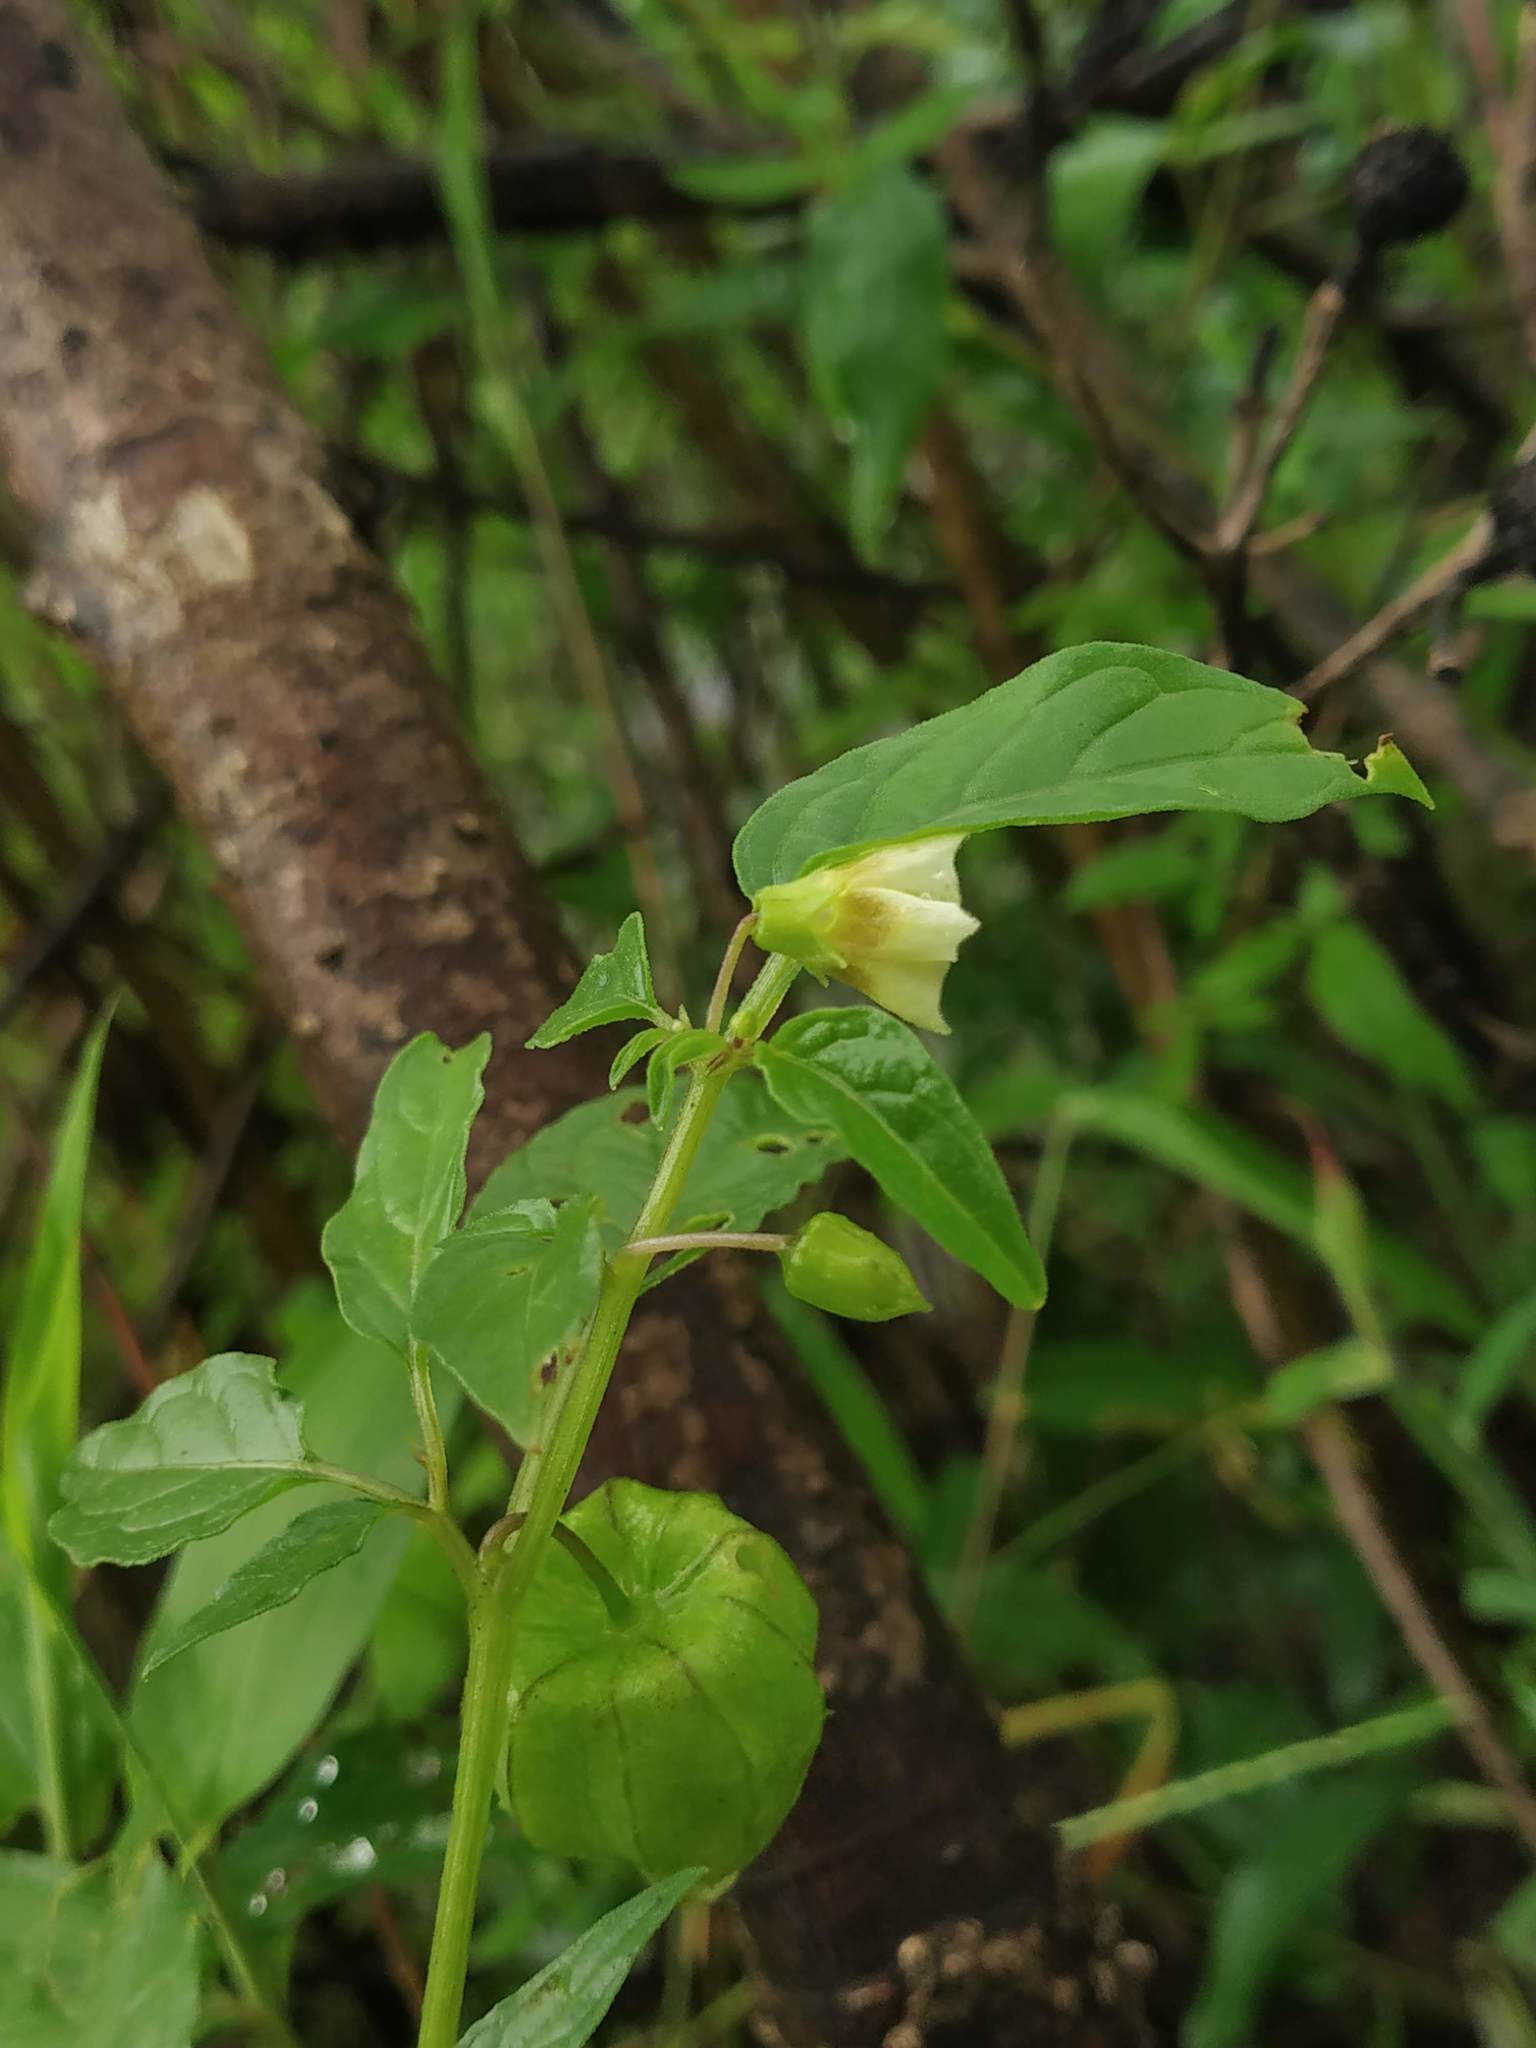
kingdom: Plantae
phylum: Tracheophyta
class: Magnoliopsida
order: Solanales
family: Solanaceae
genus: Physalis
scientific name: Physalis angulata
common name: Angular winter-cherry
